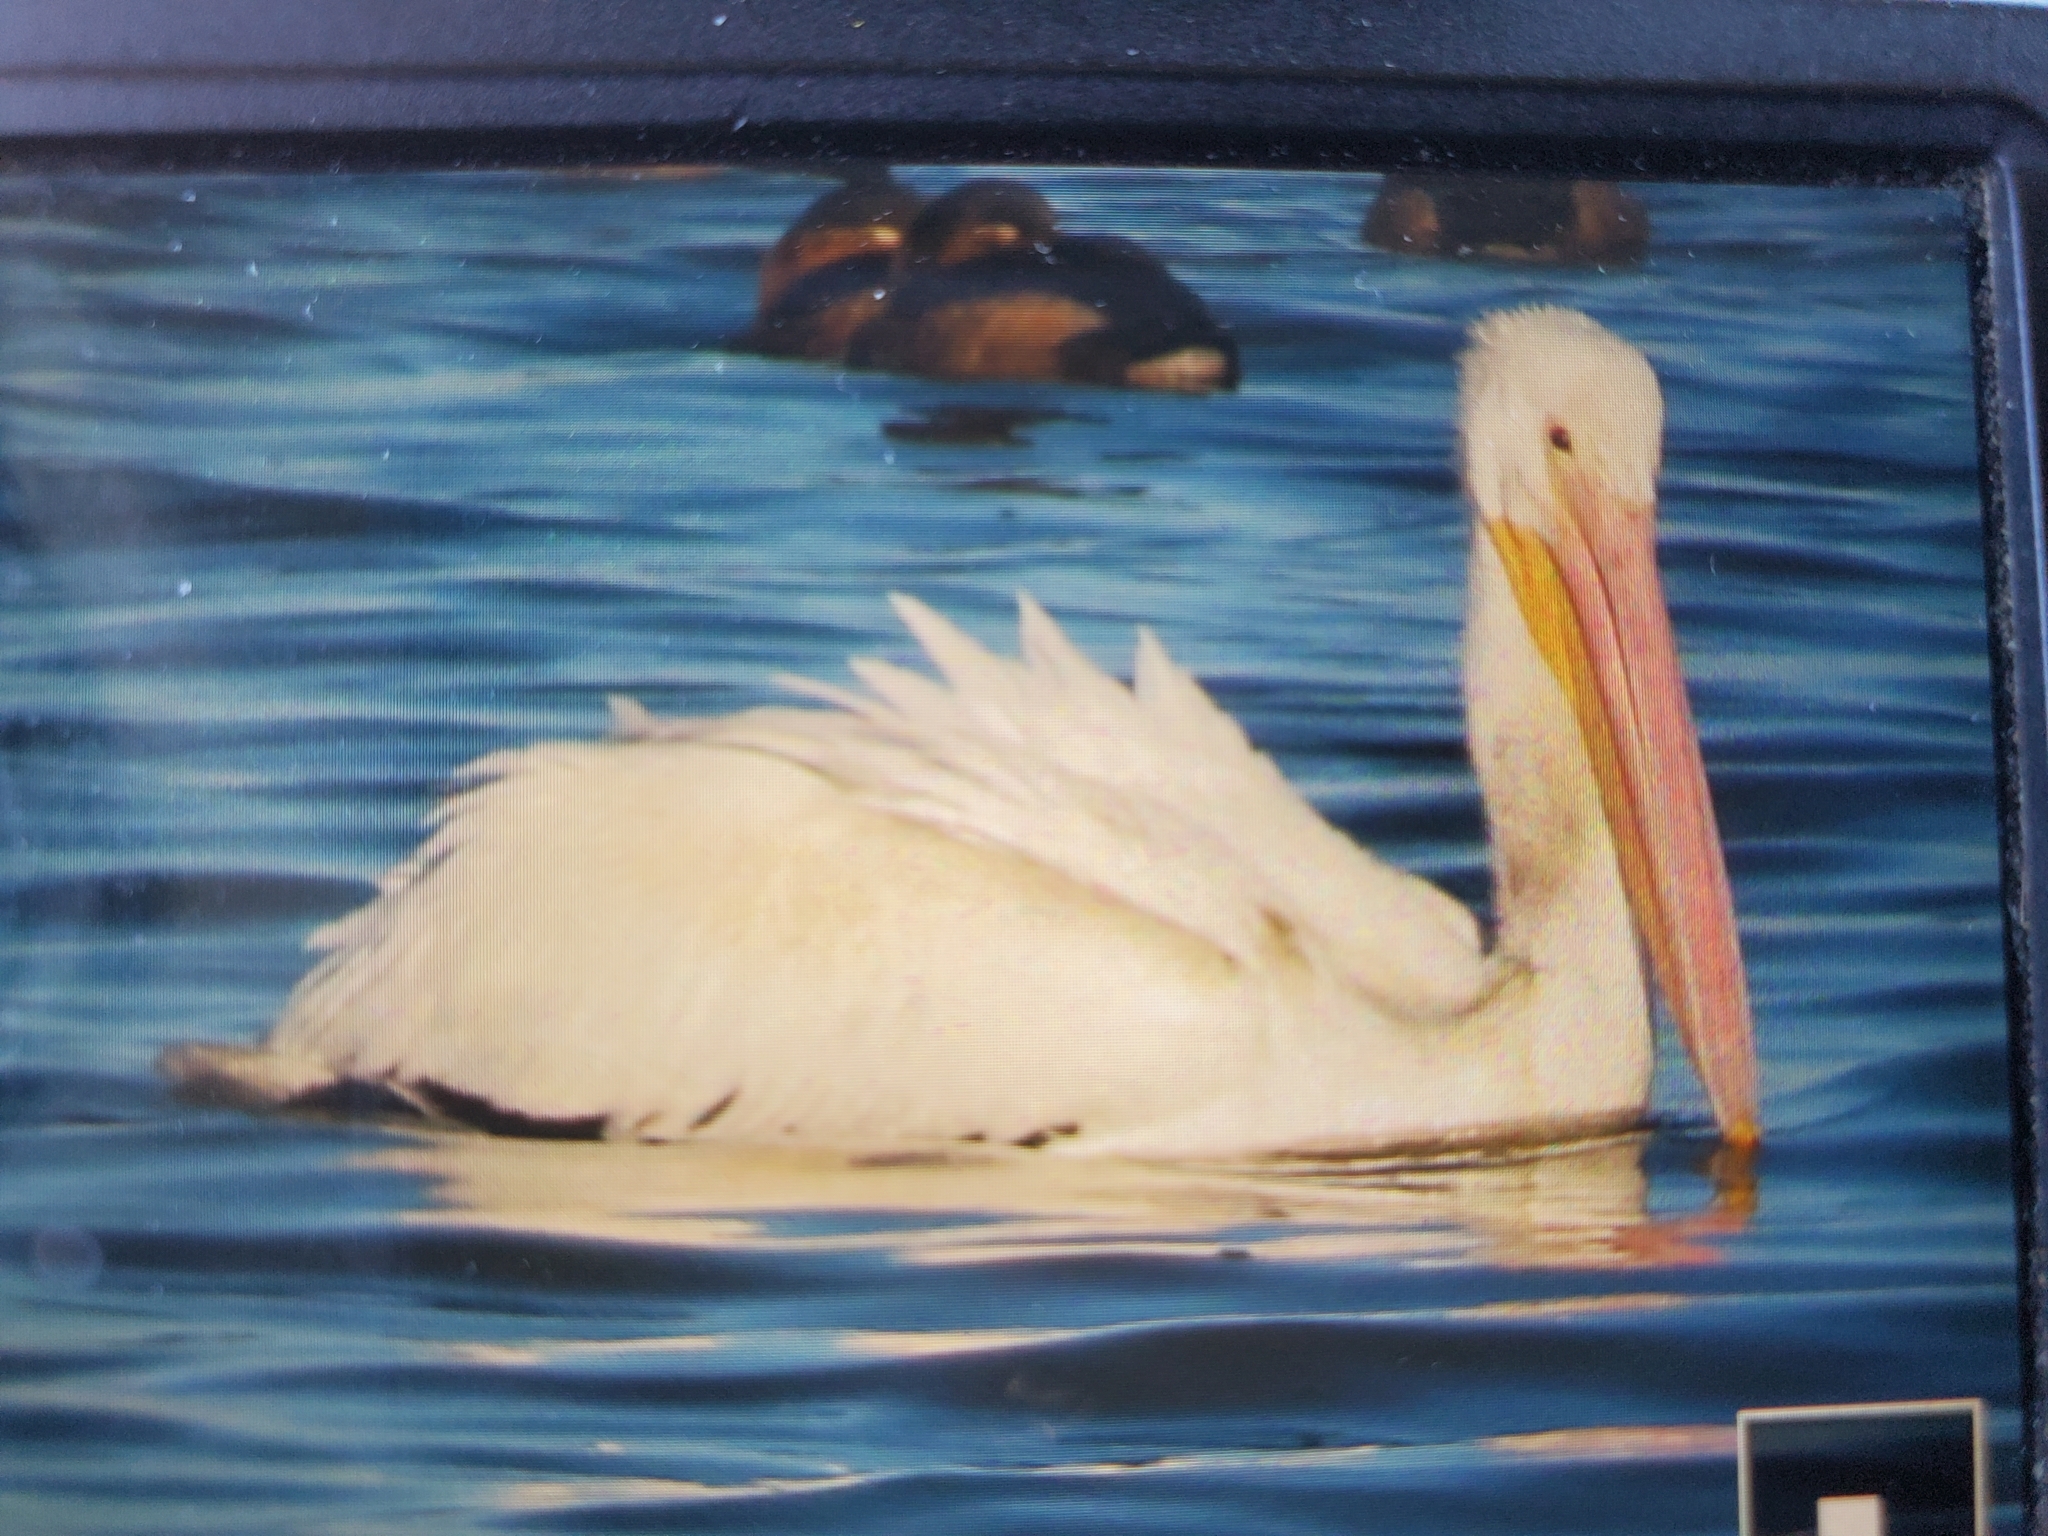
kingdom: Animalia
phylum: Chordata
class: Aves
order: Pelecaniformes
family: Pelecanidae
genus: Pelecanus
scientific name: Pelecanus erythrorhynchos
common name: American white pelican
